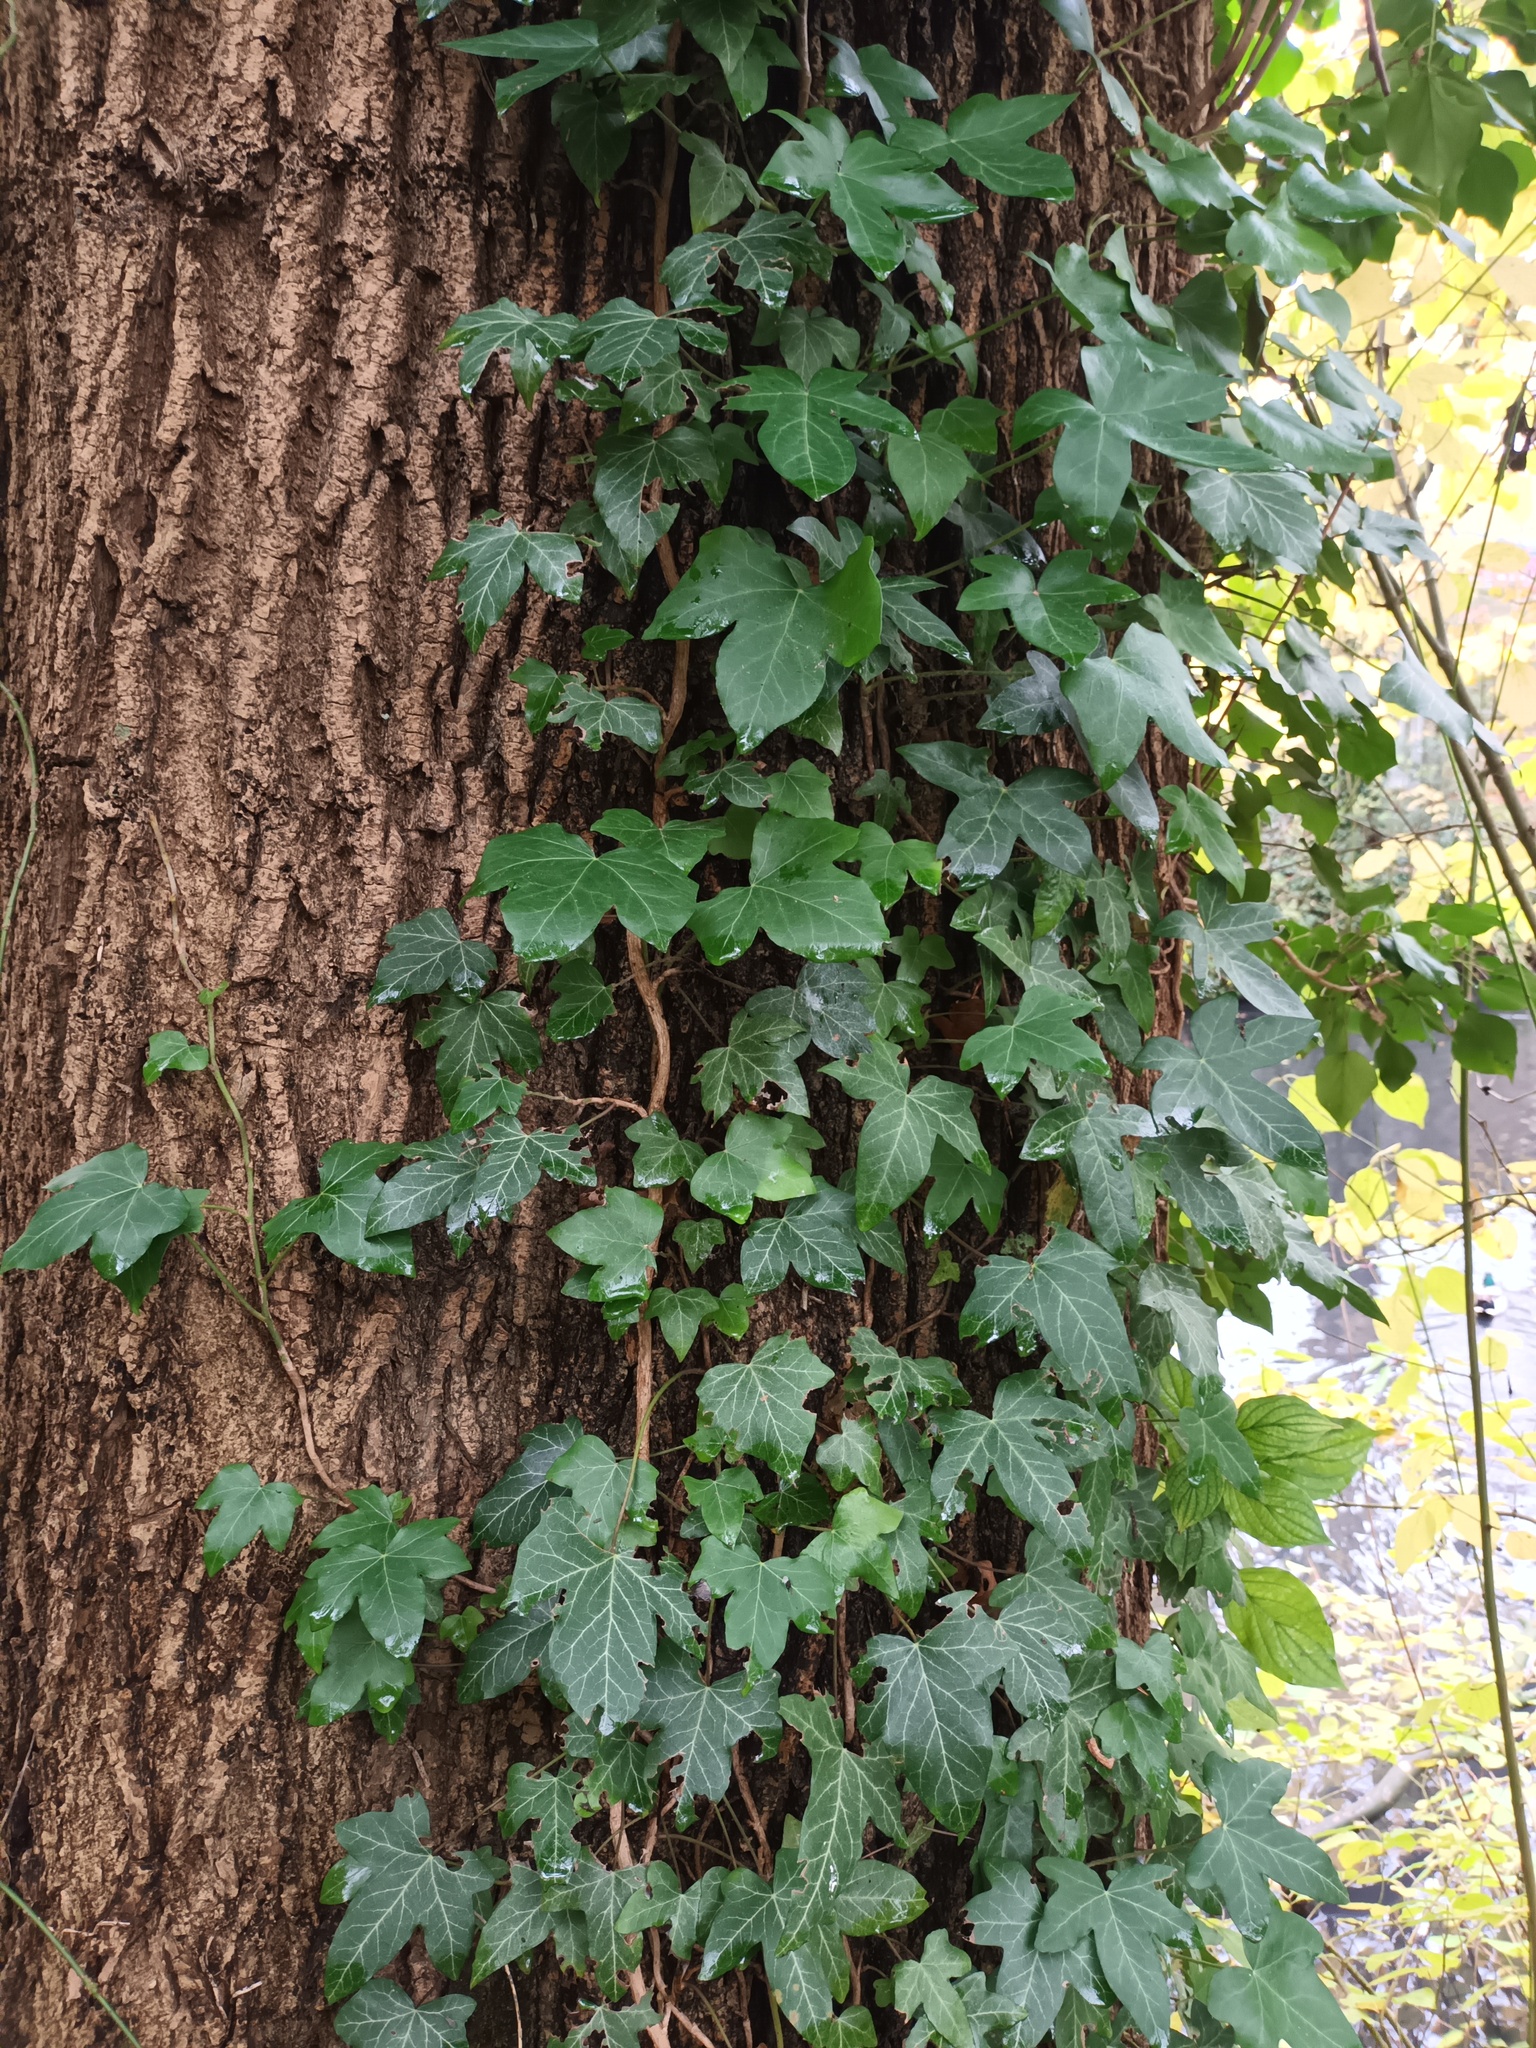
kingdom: Plantae
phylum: Tracheophyta
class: Magnoliopsida
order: Apiales
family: Araliaceae
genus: Hedera
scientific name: Hedera helix
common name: Ivy
